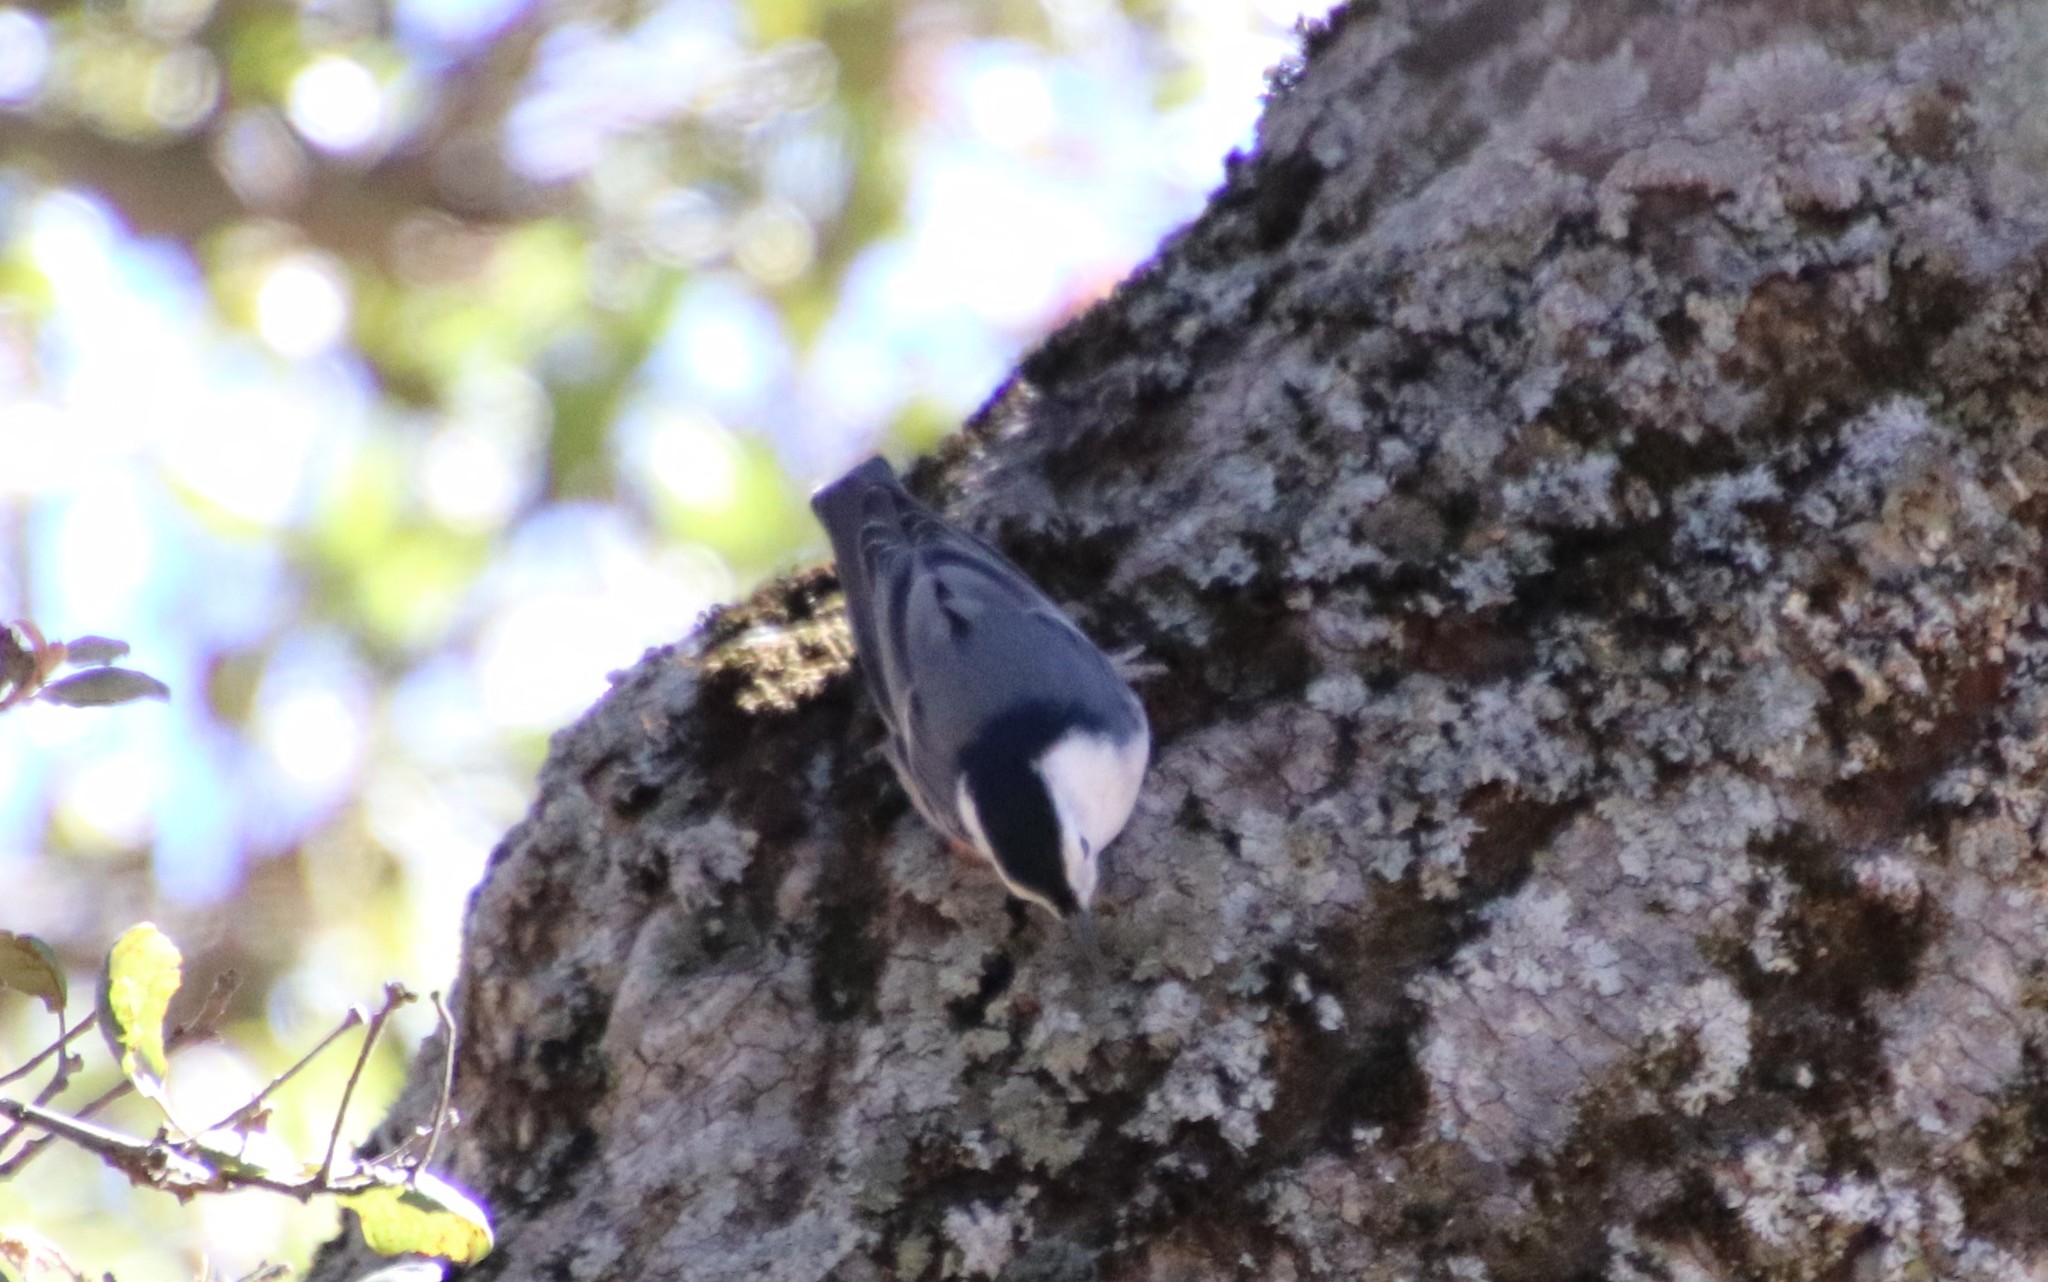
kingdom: Animalia
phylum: Chordata
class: Aves
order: Passeriformes
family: Sittidae
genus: Sitta
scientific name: Sitta carolinensis
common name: White-breasted nuthatch
